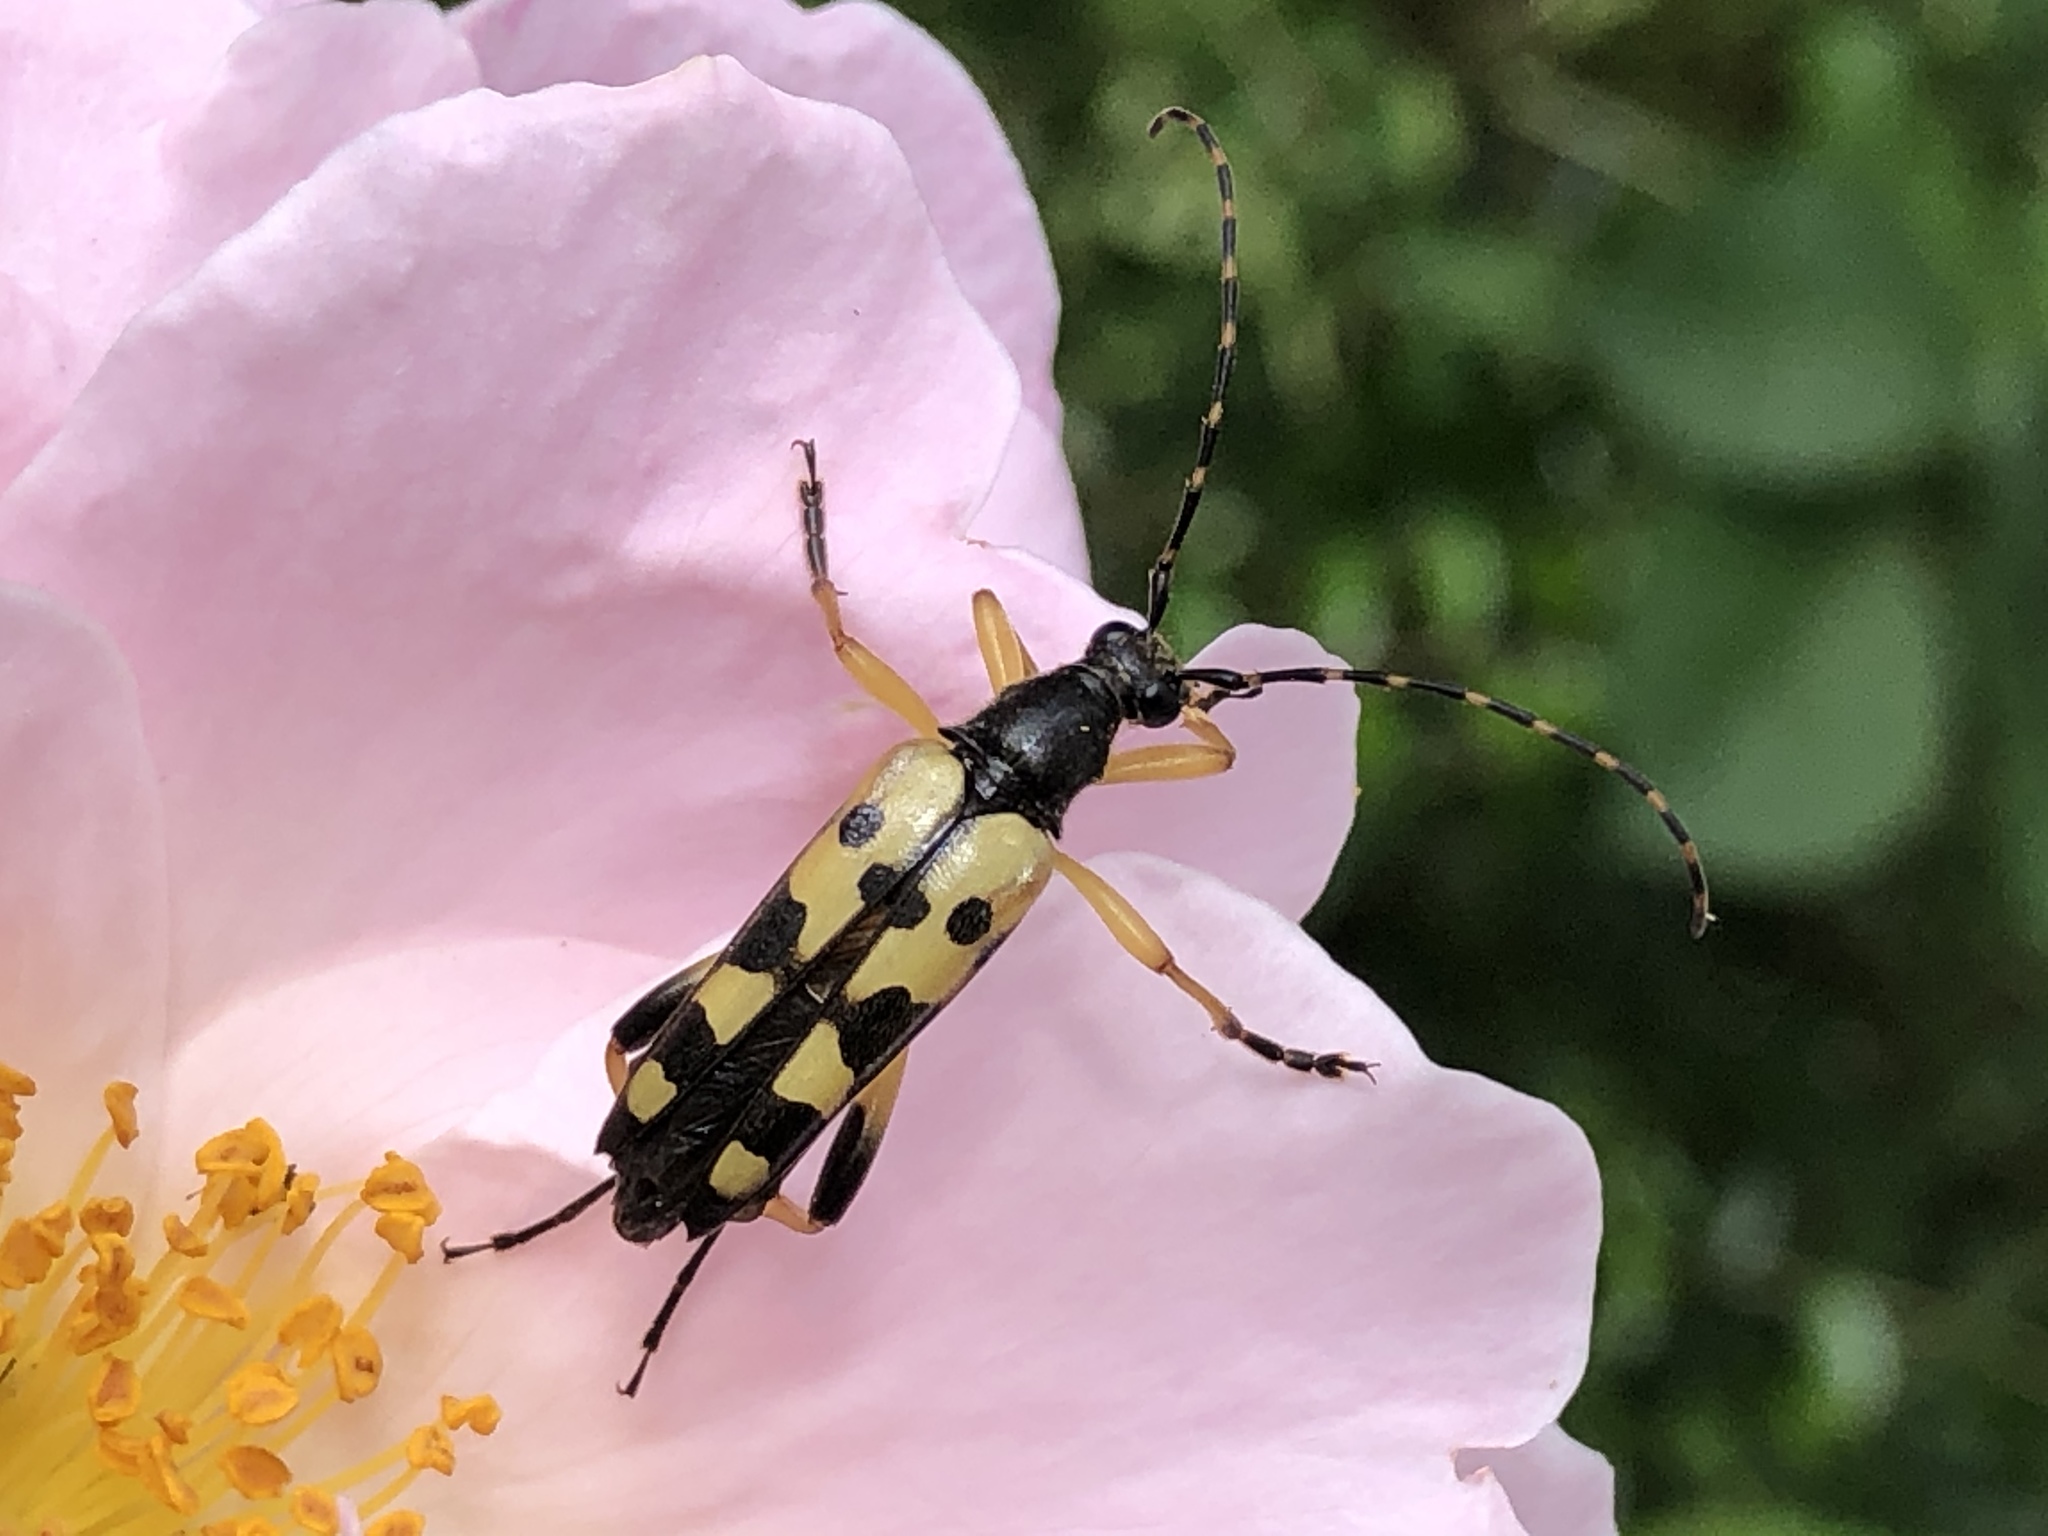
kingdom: Animalia
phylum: Arthropoda
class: Insecta
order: Coleoptera
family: Cerambycidae
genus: Rutpela
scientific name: Rutpela maculata
